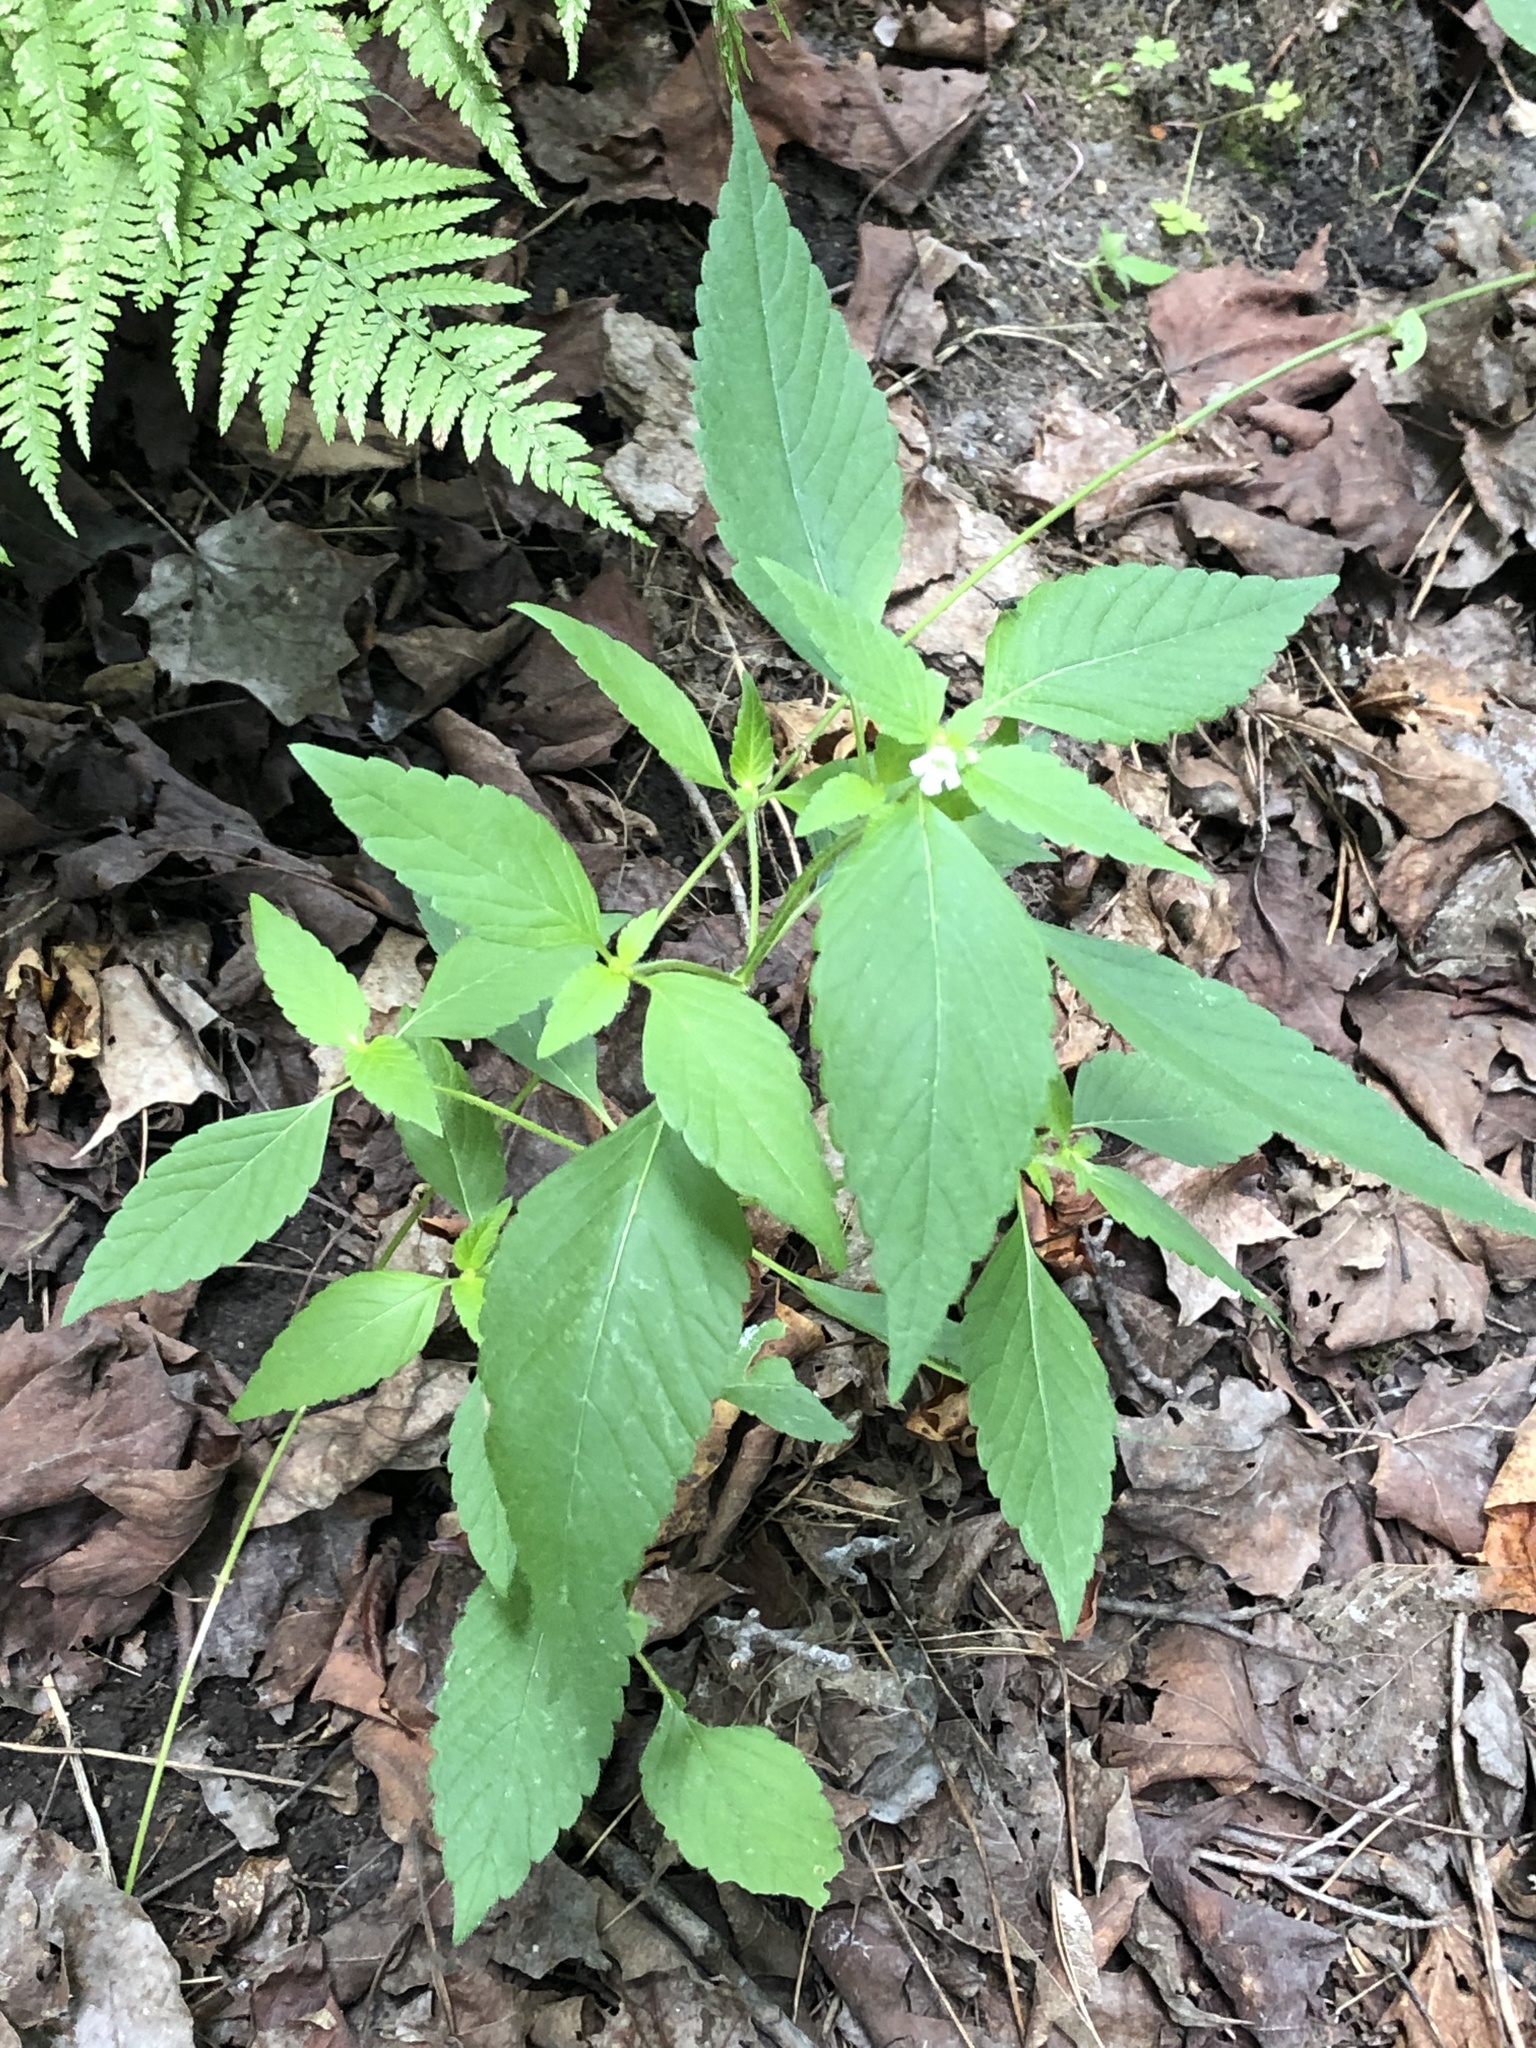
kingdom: Plantae
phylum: Tracheophyta
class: Magnoliopsida
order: Lamiales
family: Lamiaceae
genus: Galeopsis
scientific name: Galeopsis tetrahit
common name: Common hemp-nettle
